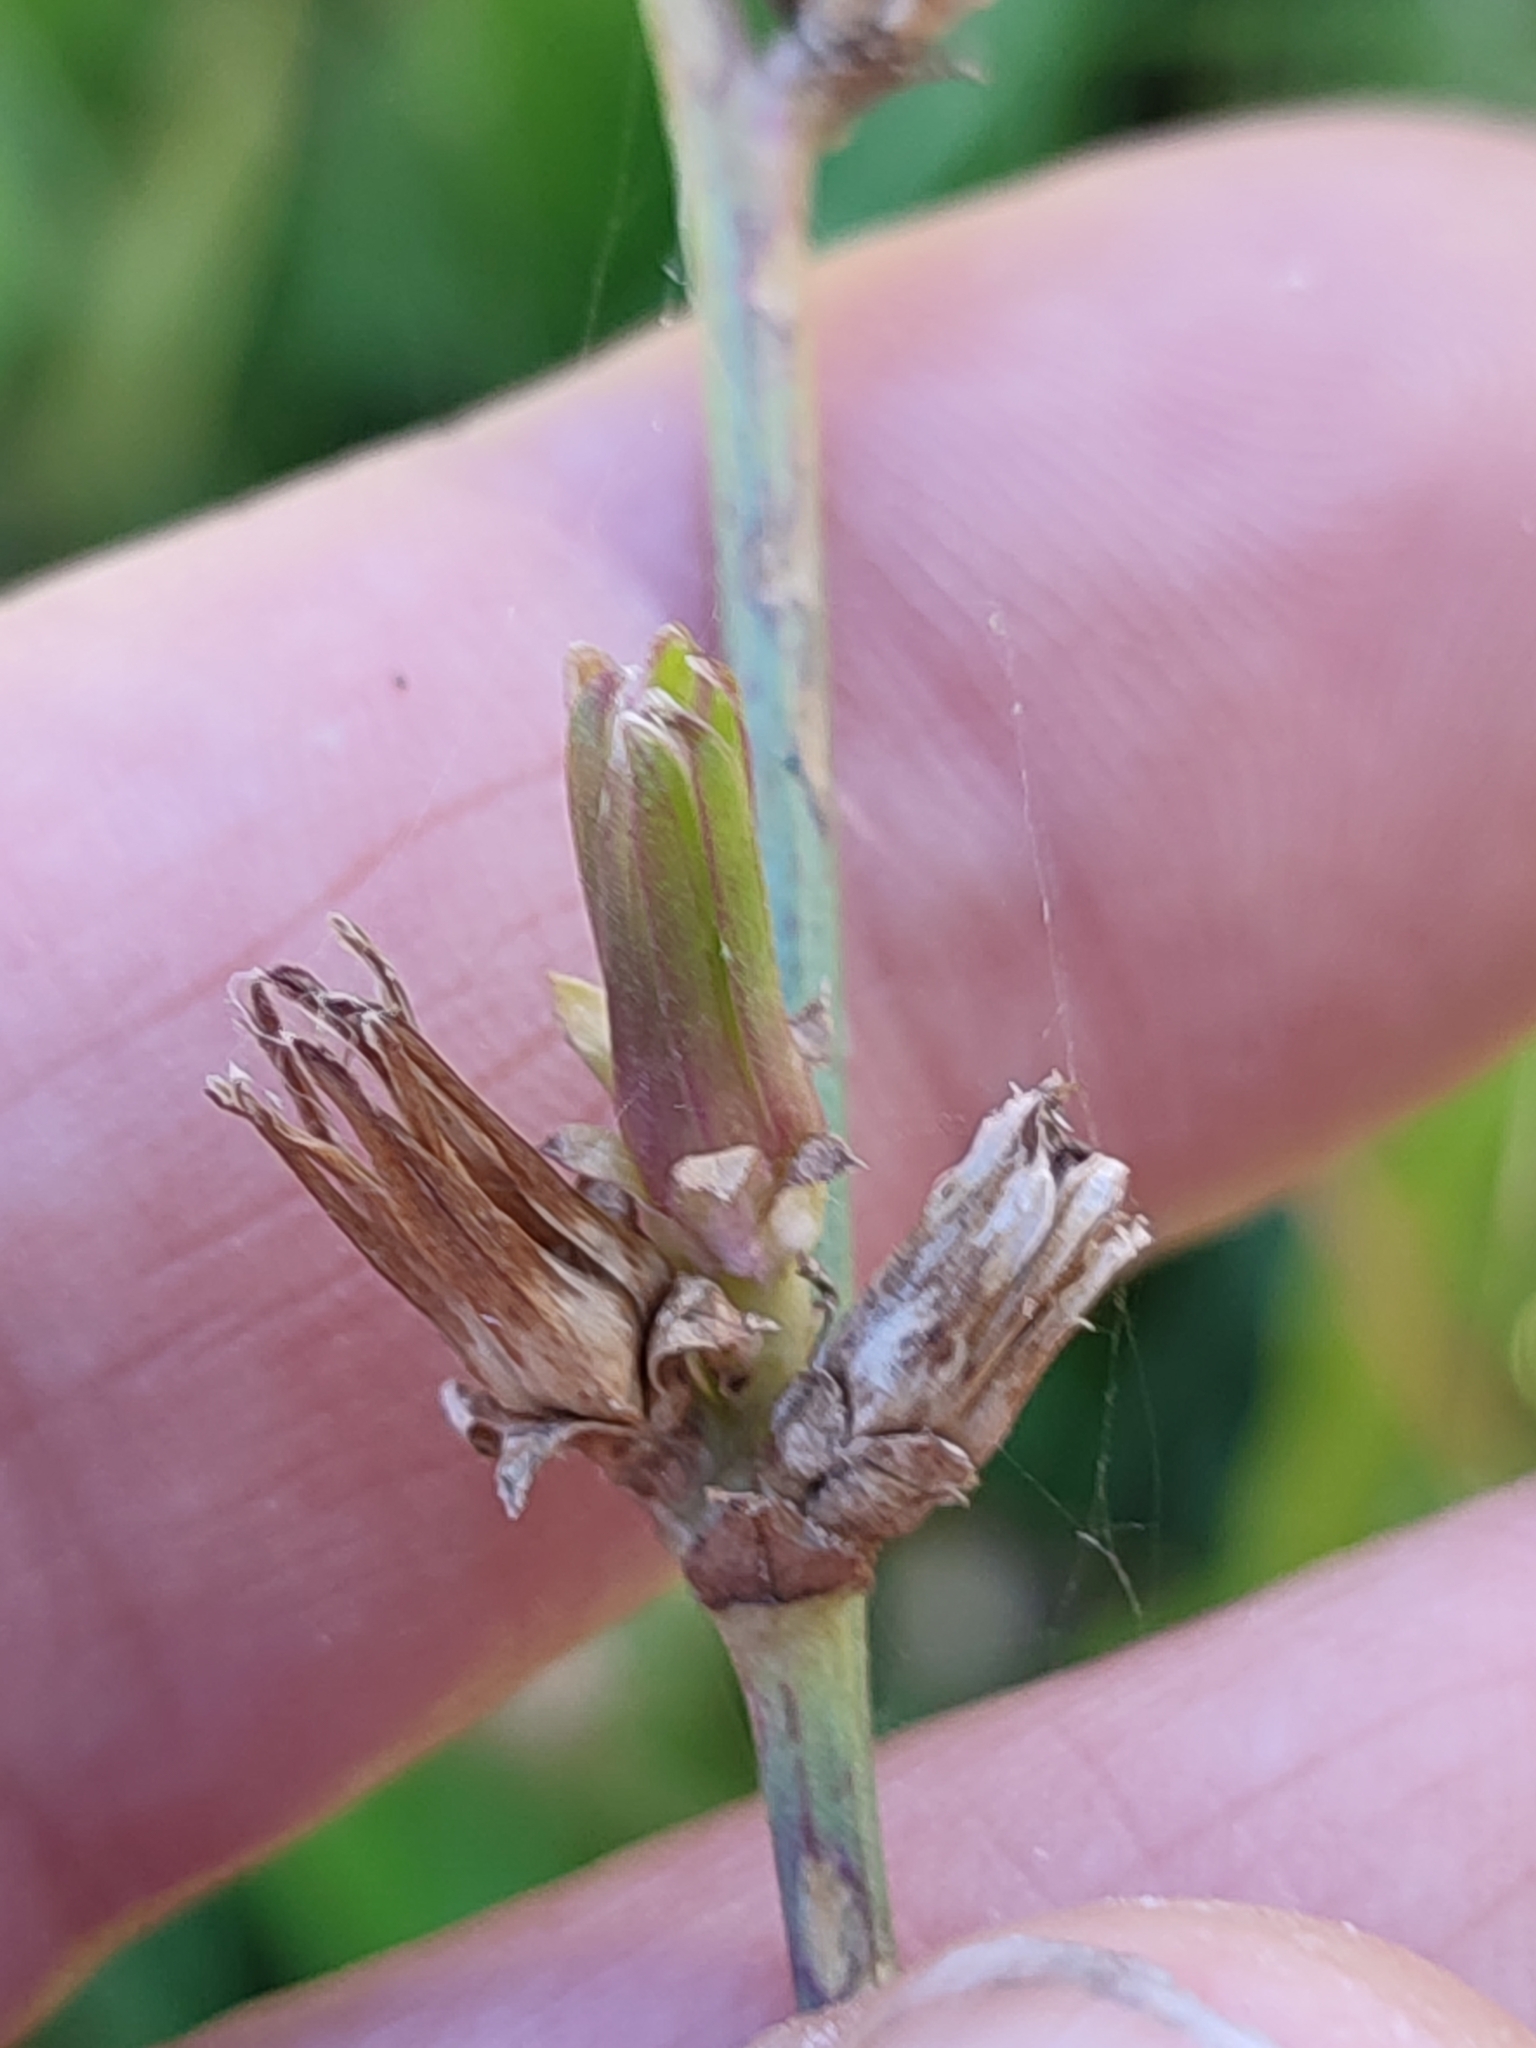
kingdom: Plantae
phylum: Tracheophyta
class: Magnoliopsida
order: Asterales
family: Asteraceae
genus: Cichorium
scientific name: Cichorium intybus
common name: Chicory
